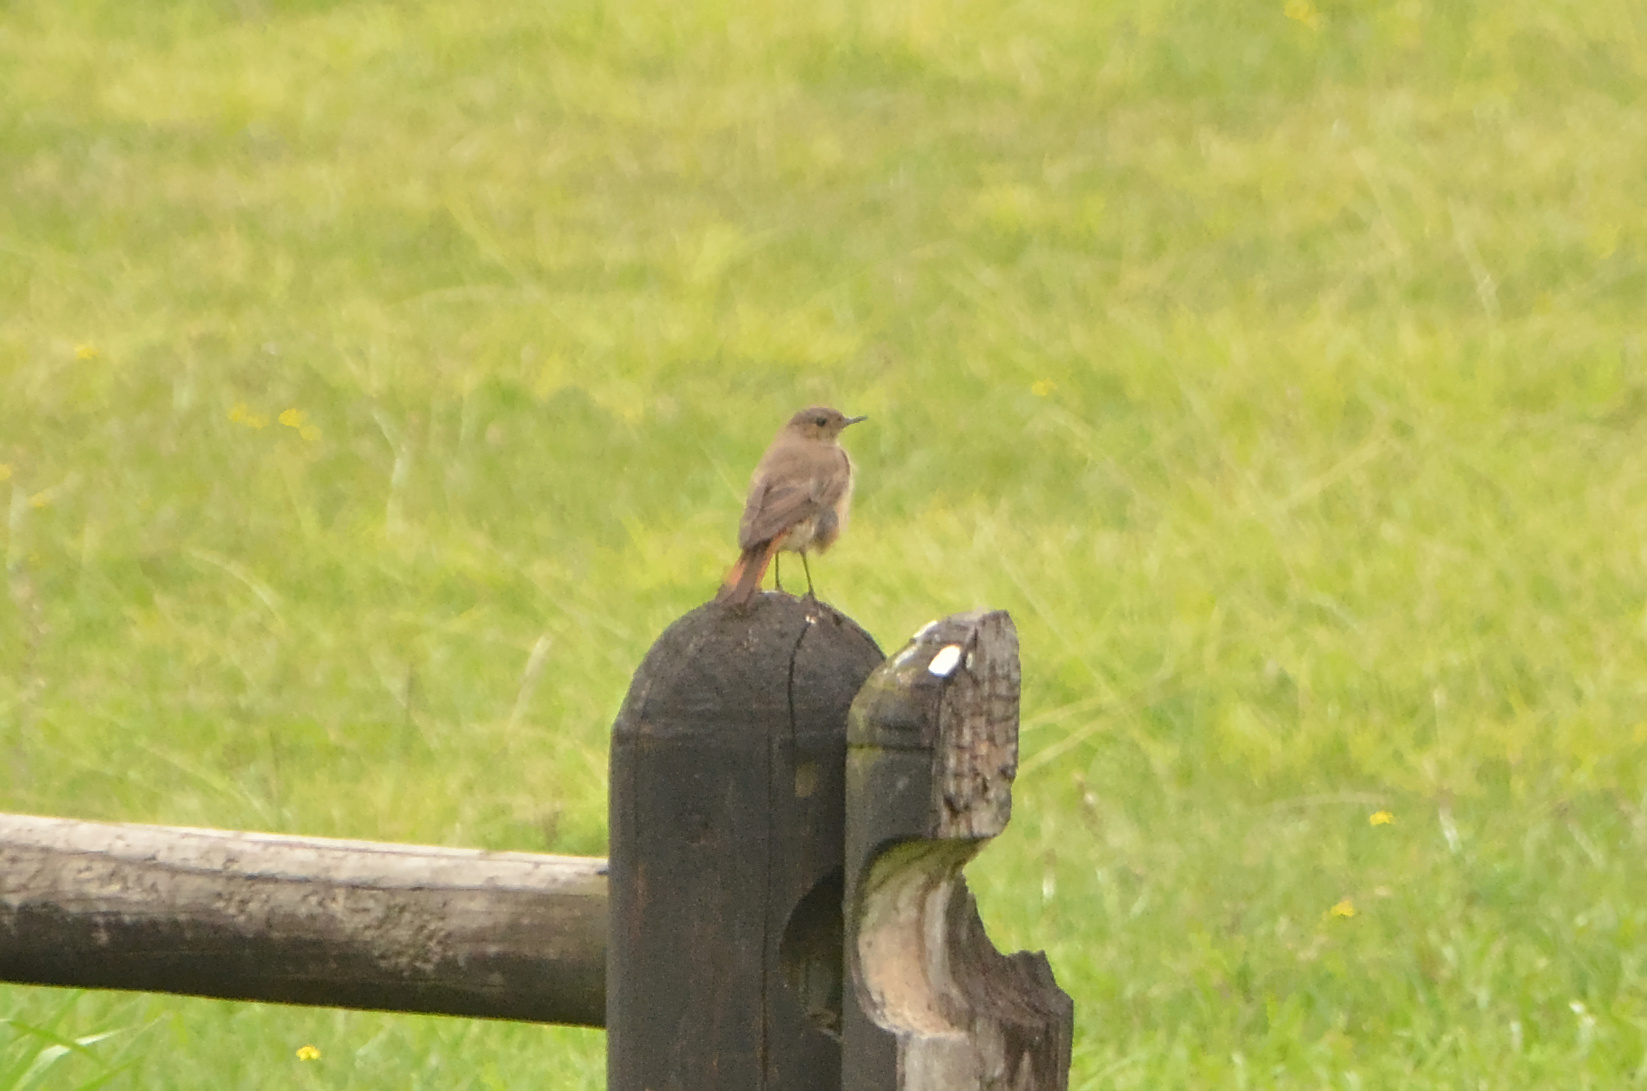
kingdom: Animalia
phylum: Chordata
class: Aves
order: Passeriformes
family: Muscicapidae
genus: Oenanthe
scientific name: Oenanthe familiaris
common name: Familiar chat
